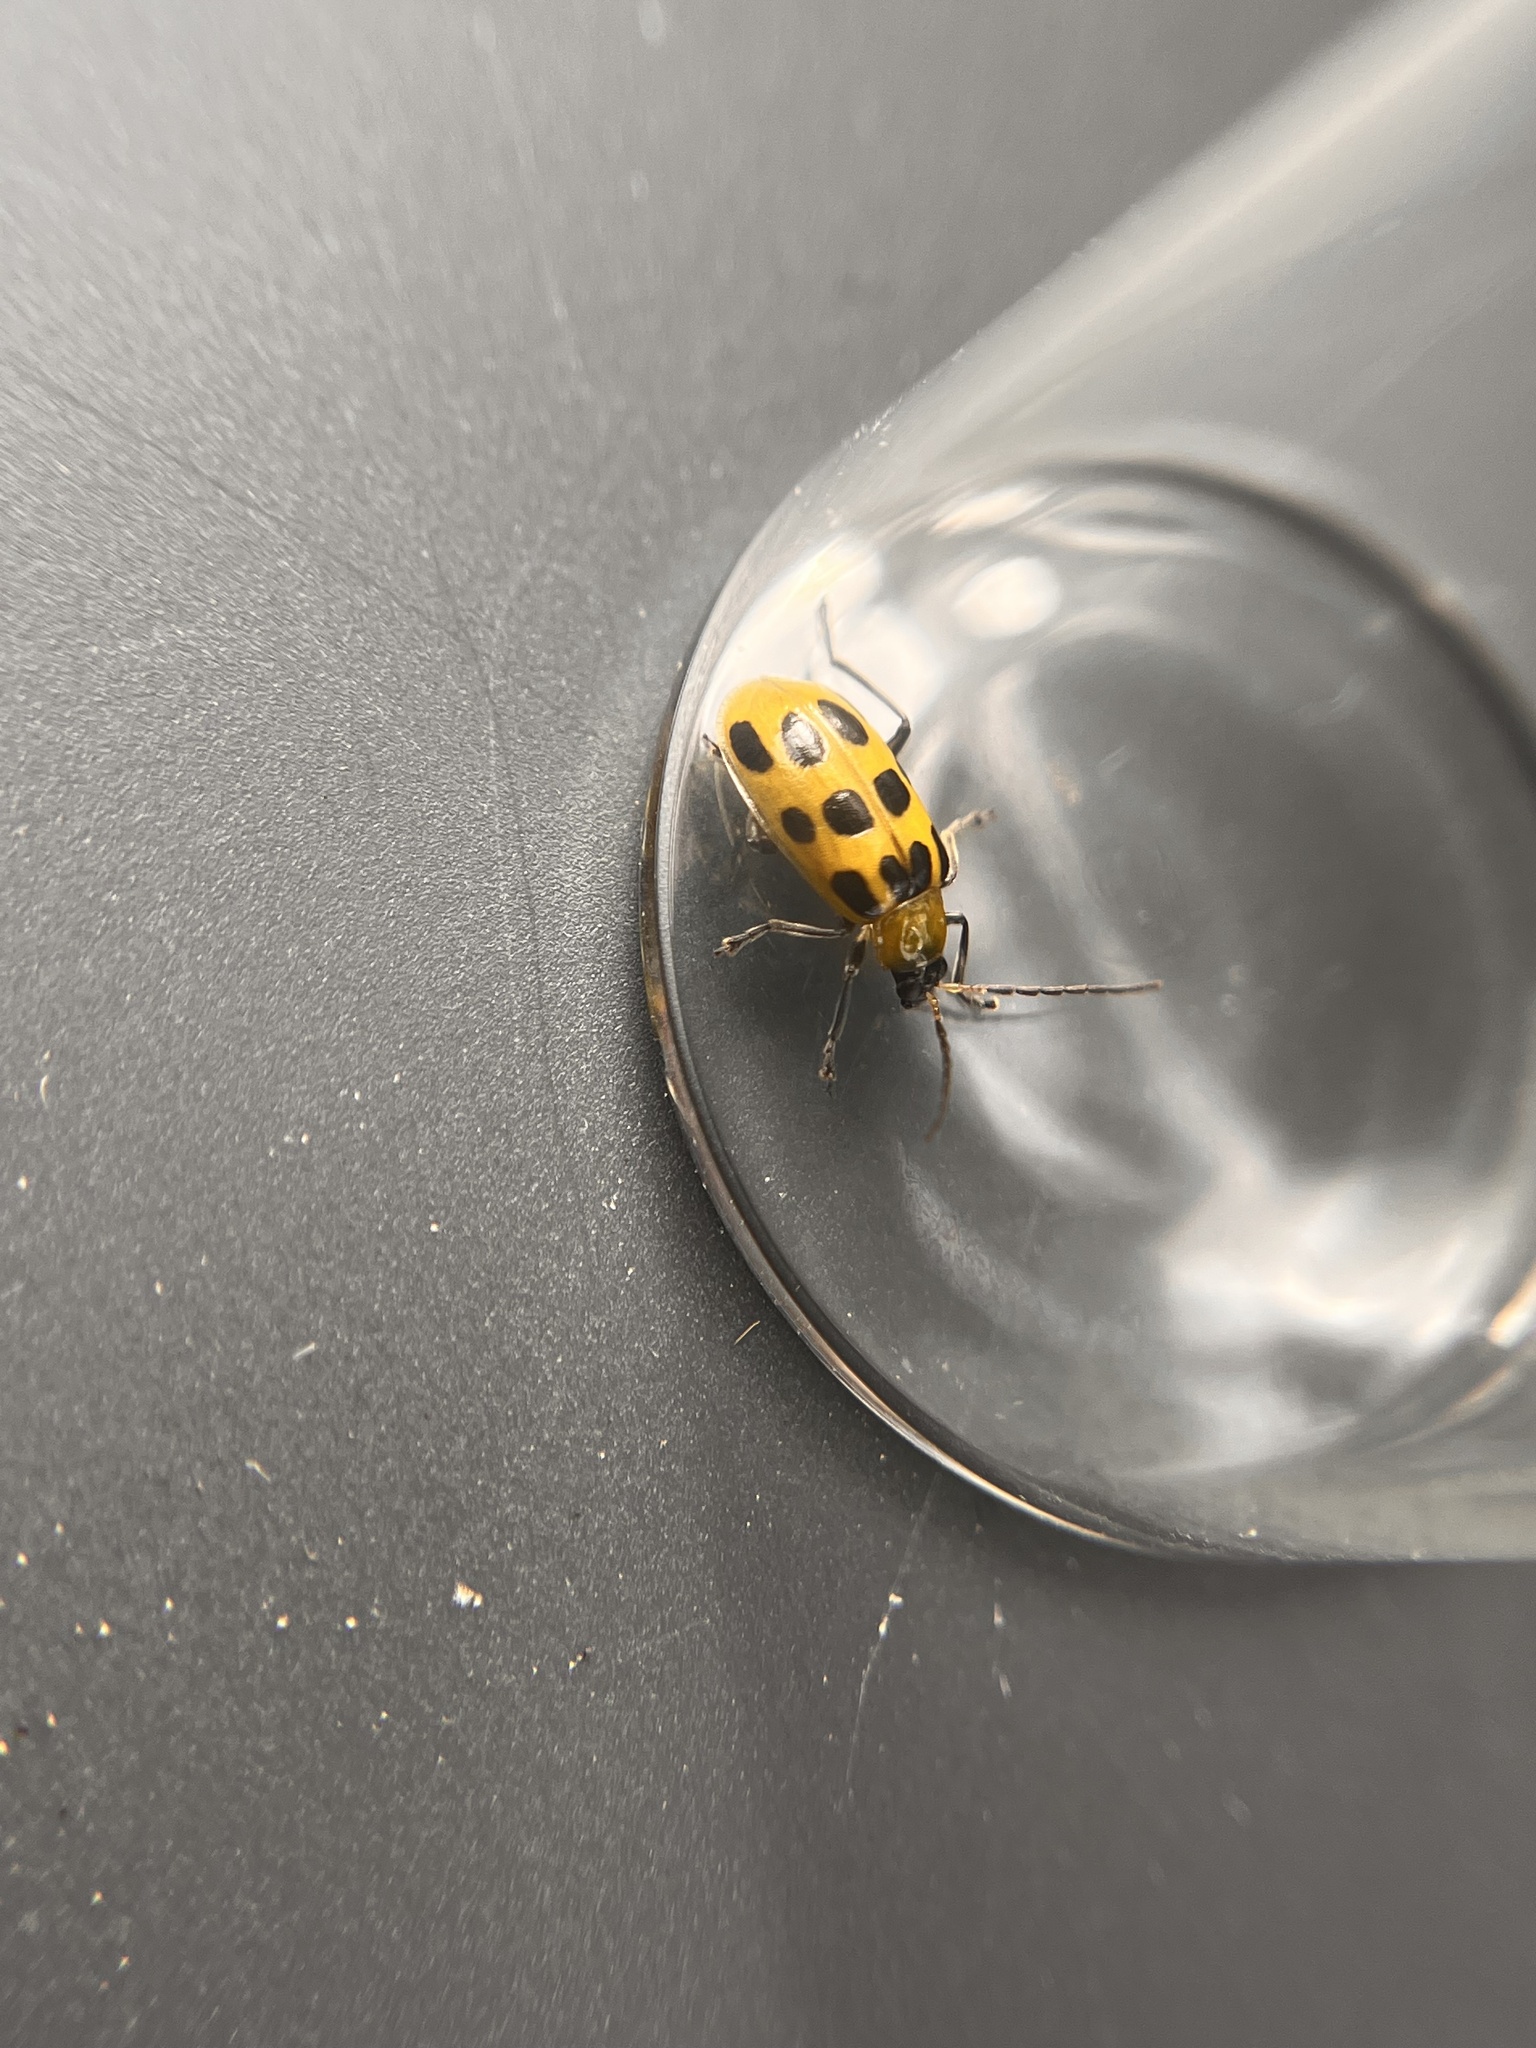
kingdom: Animalia
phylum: Arthropoda
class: Insecta
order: Coleoptera
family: Chrysomelidae
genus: Diabrotica
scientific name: Diabrotica undecimpunctata
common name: Spotted cucumber beetle
